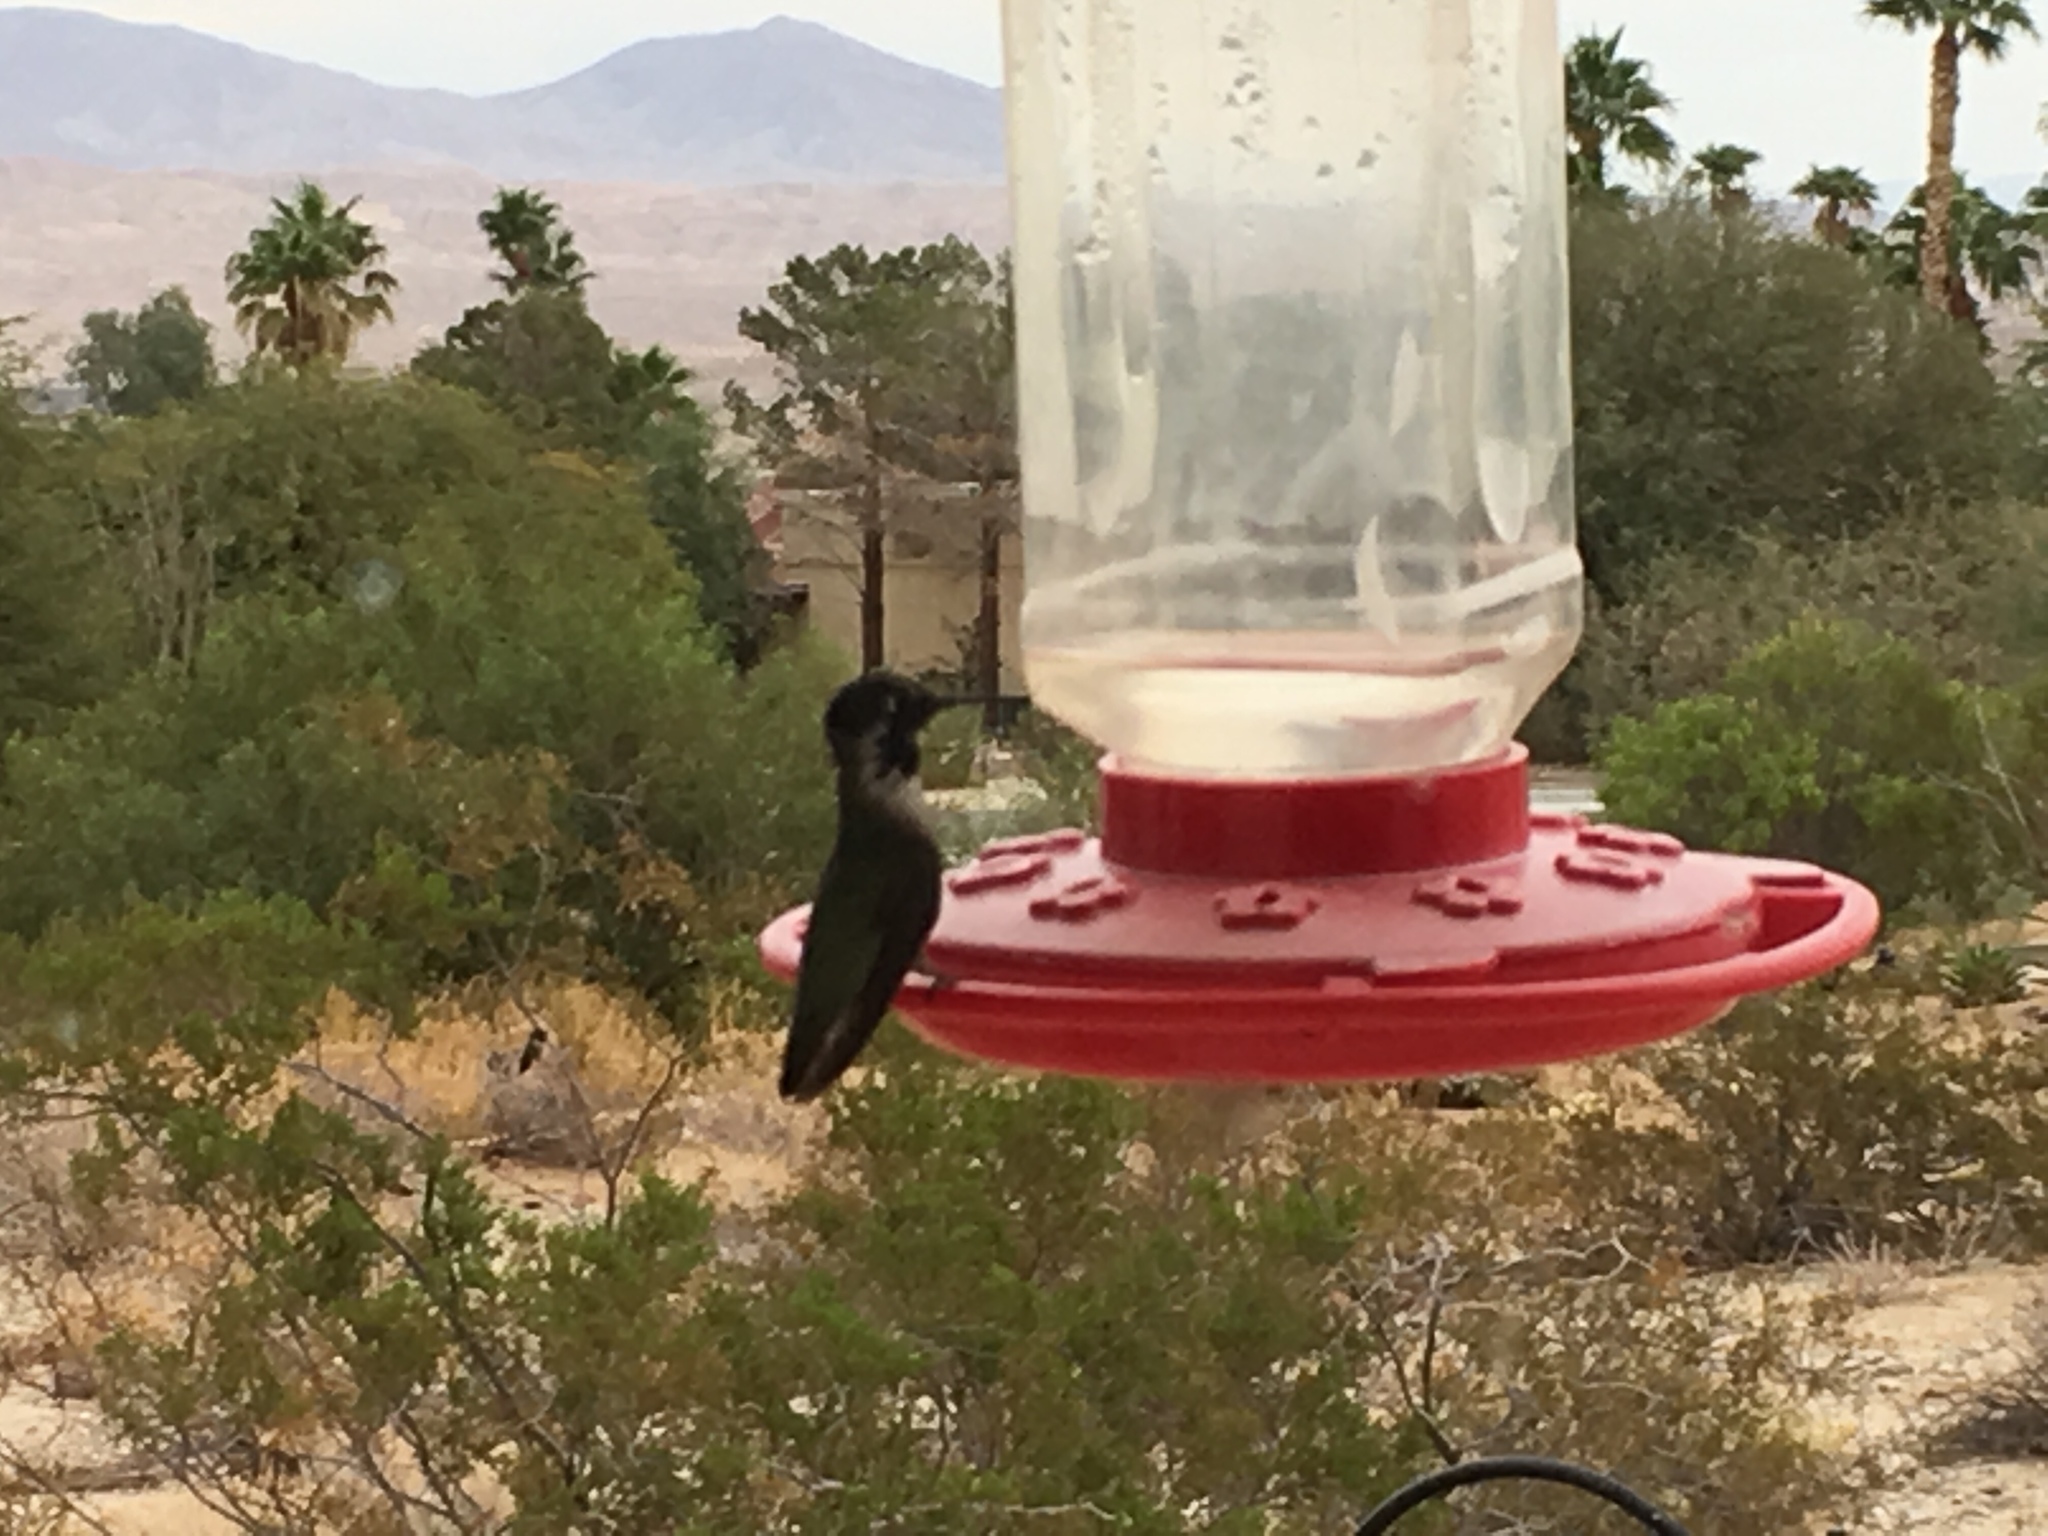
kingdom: Animalia
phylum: Chordata
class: Aves
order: Apodiformes
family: Trochilidae
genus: Calypte
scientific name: Calypte costae
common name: Costa's hummingbird
